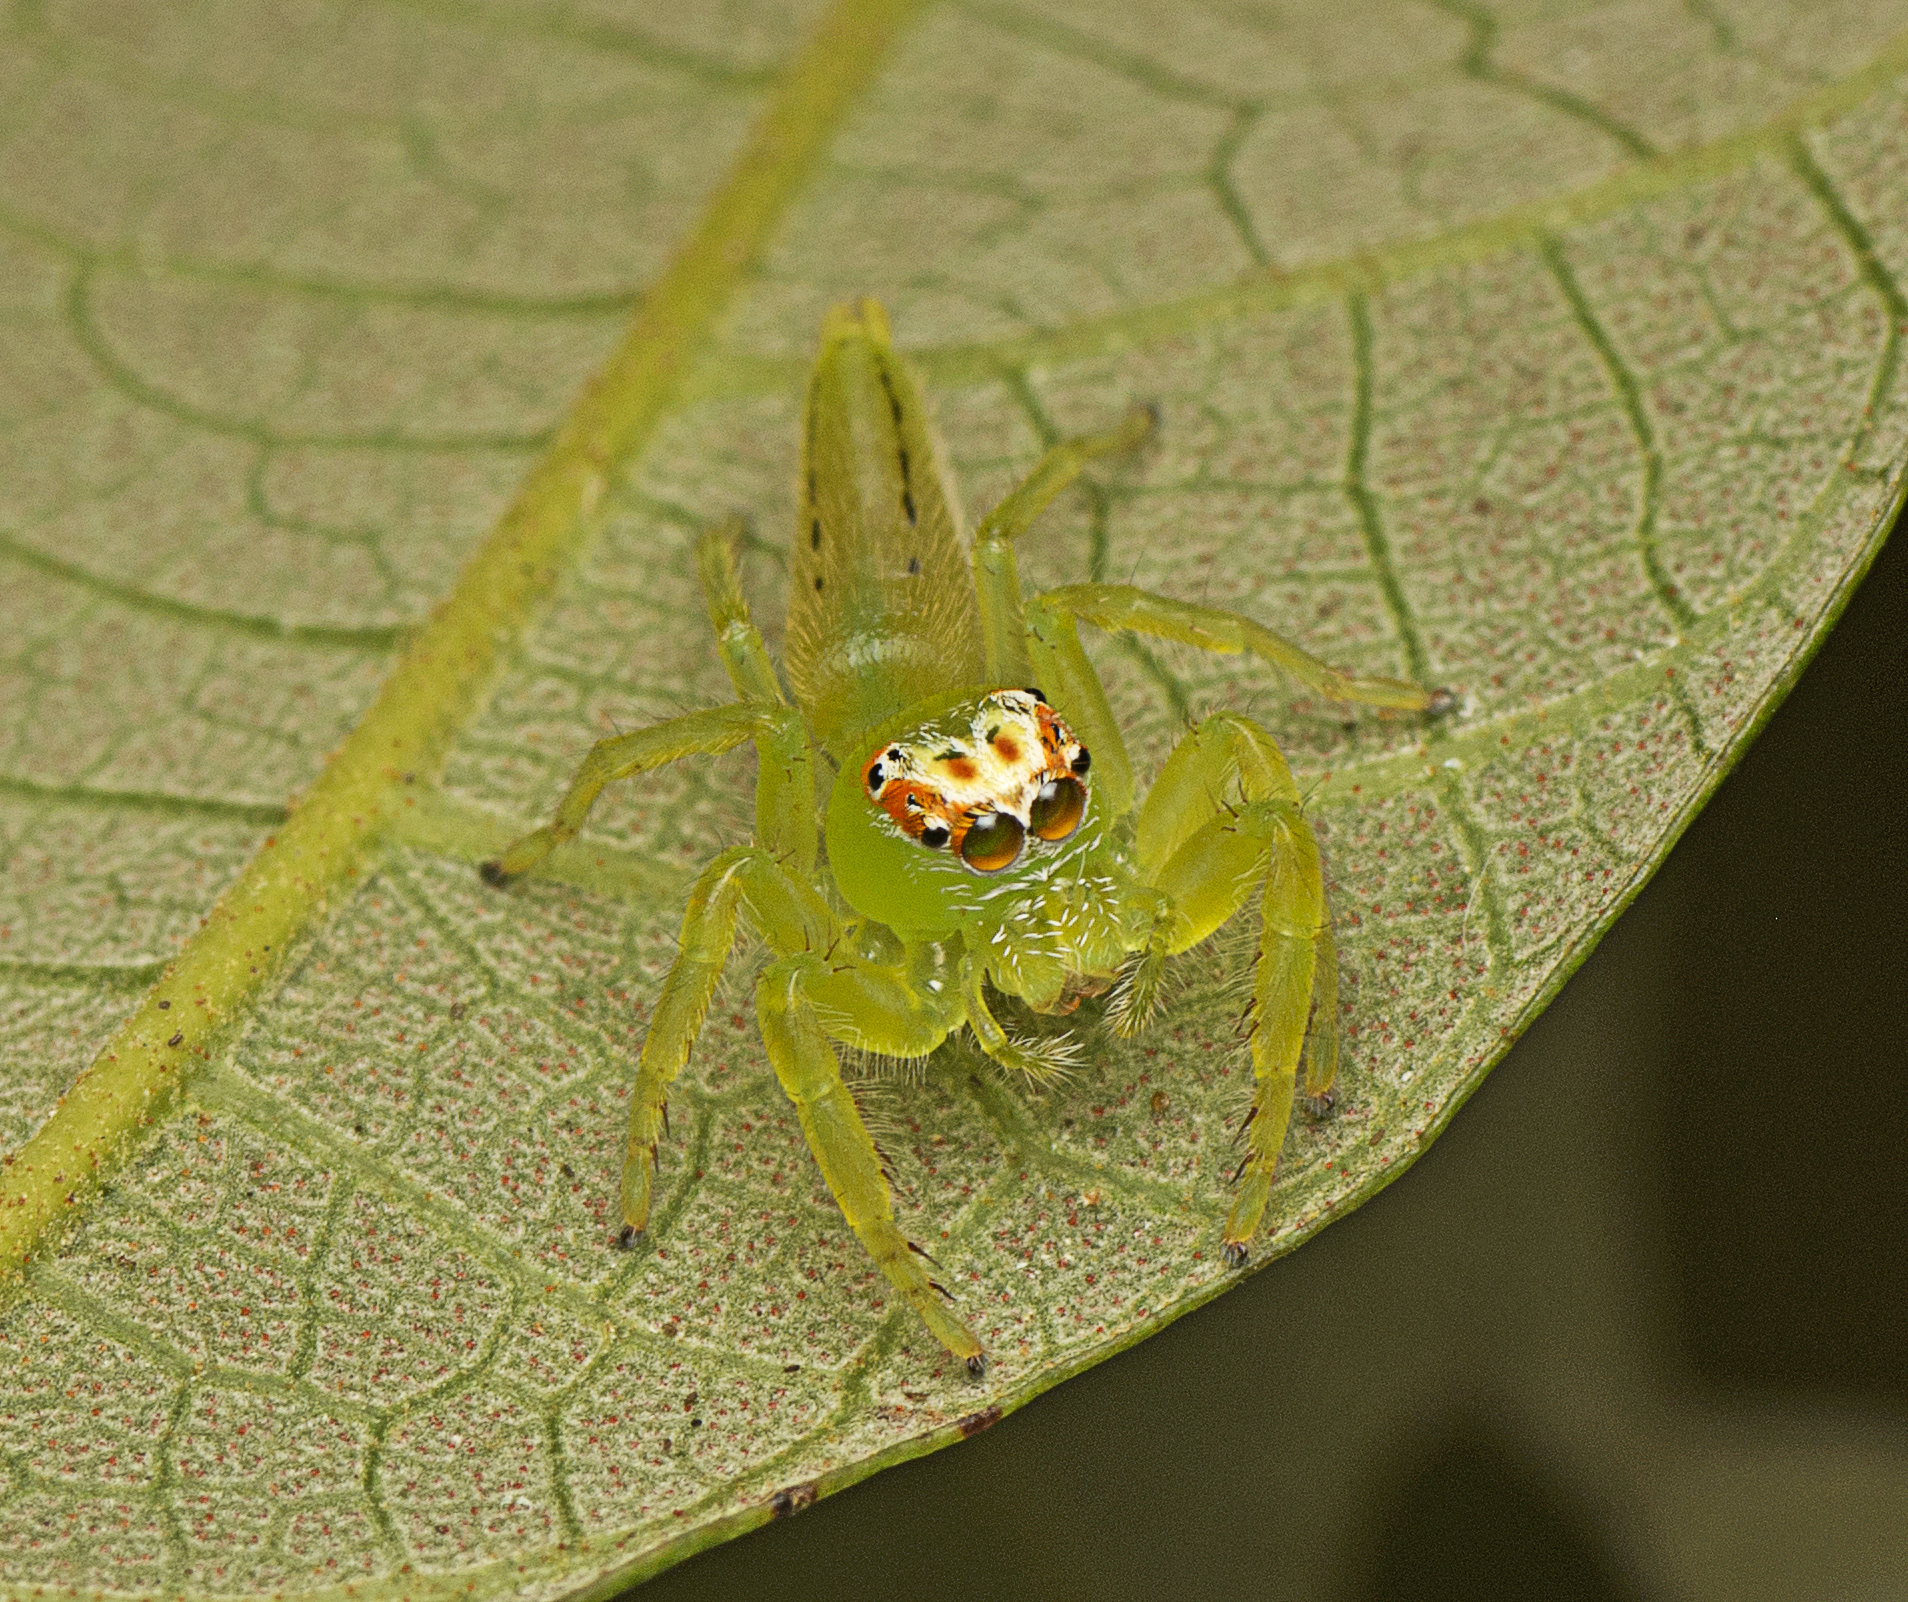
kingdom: Animalia
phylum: Arthropoda
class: Arachnida
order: Araneae
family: Salticidae
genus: Mopsus
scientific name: Mopsus mormon
